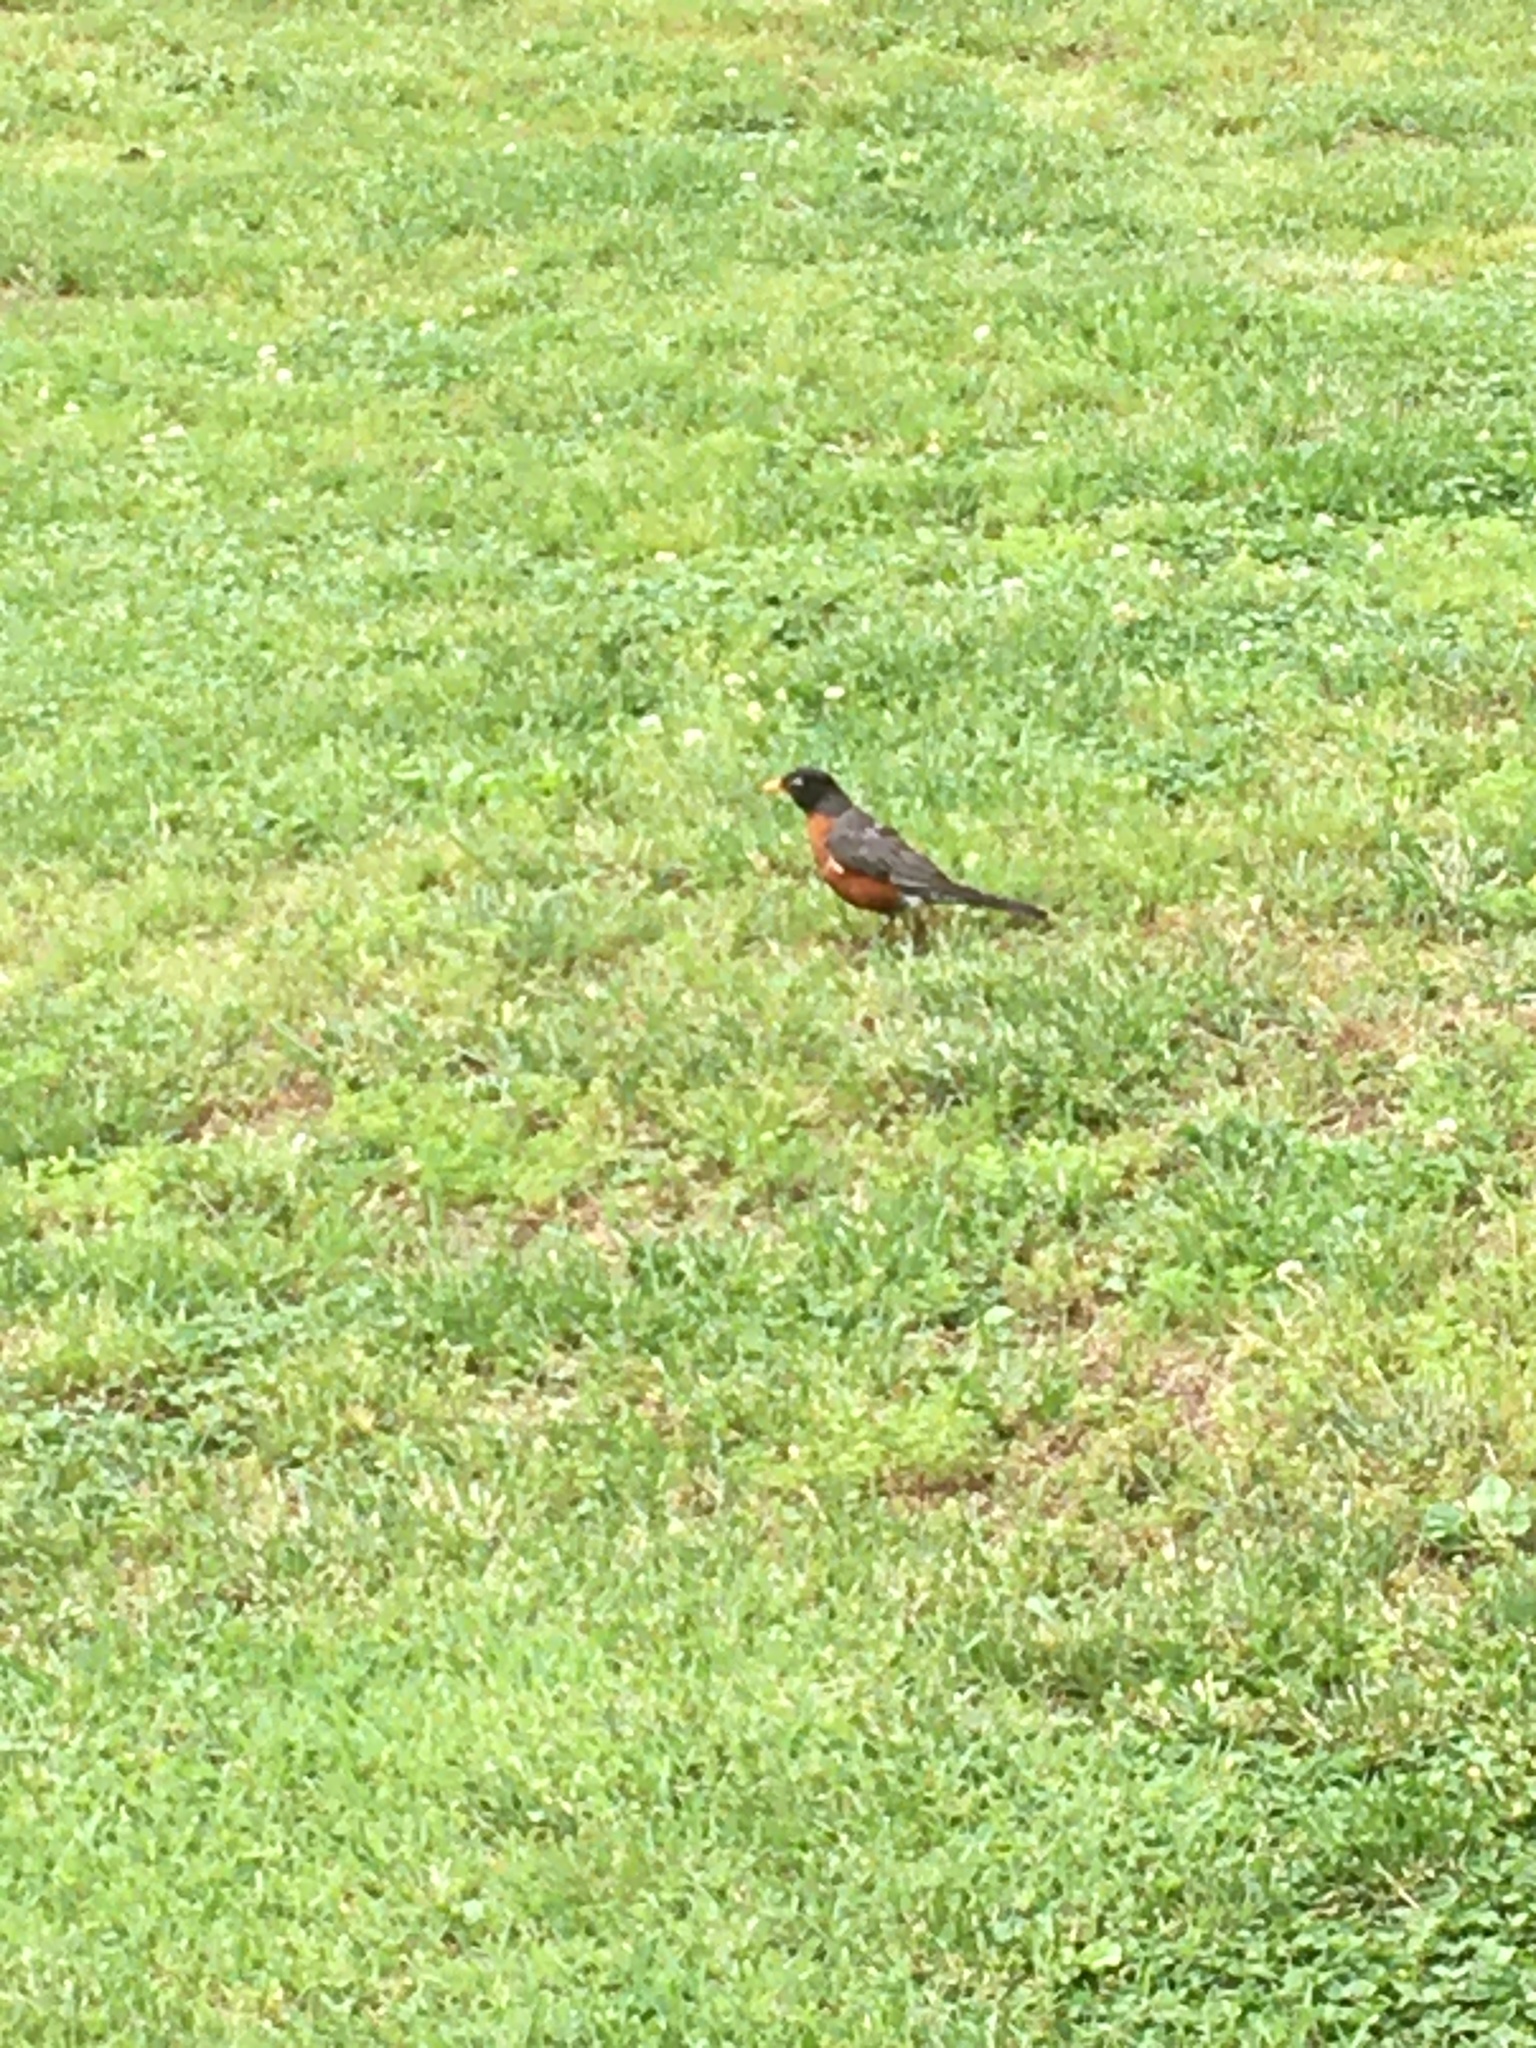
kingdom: Animalia
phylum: Chordata
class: Aves
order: Passeriformes
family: Turdidae
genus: Turdus
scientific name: Turdus migratorius
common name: American robin
